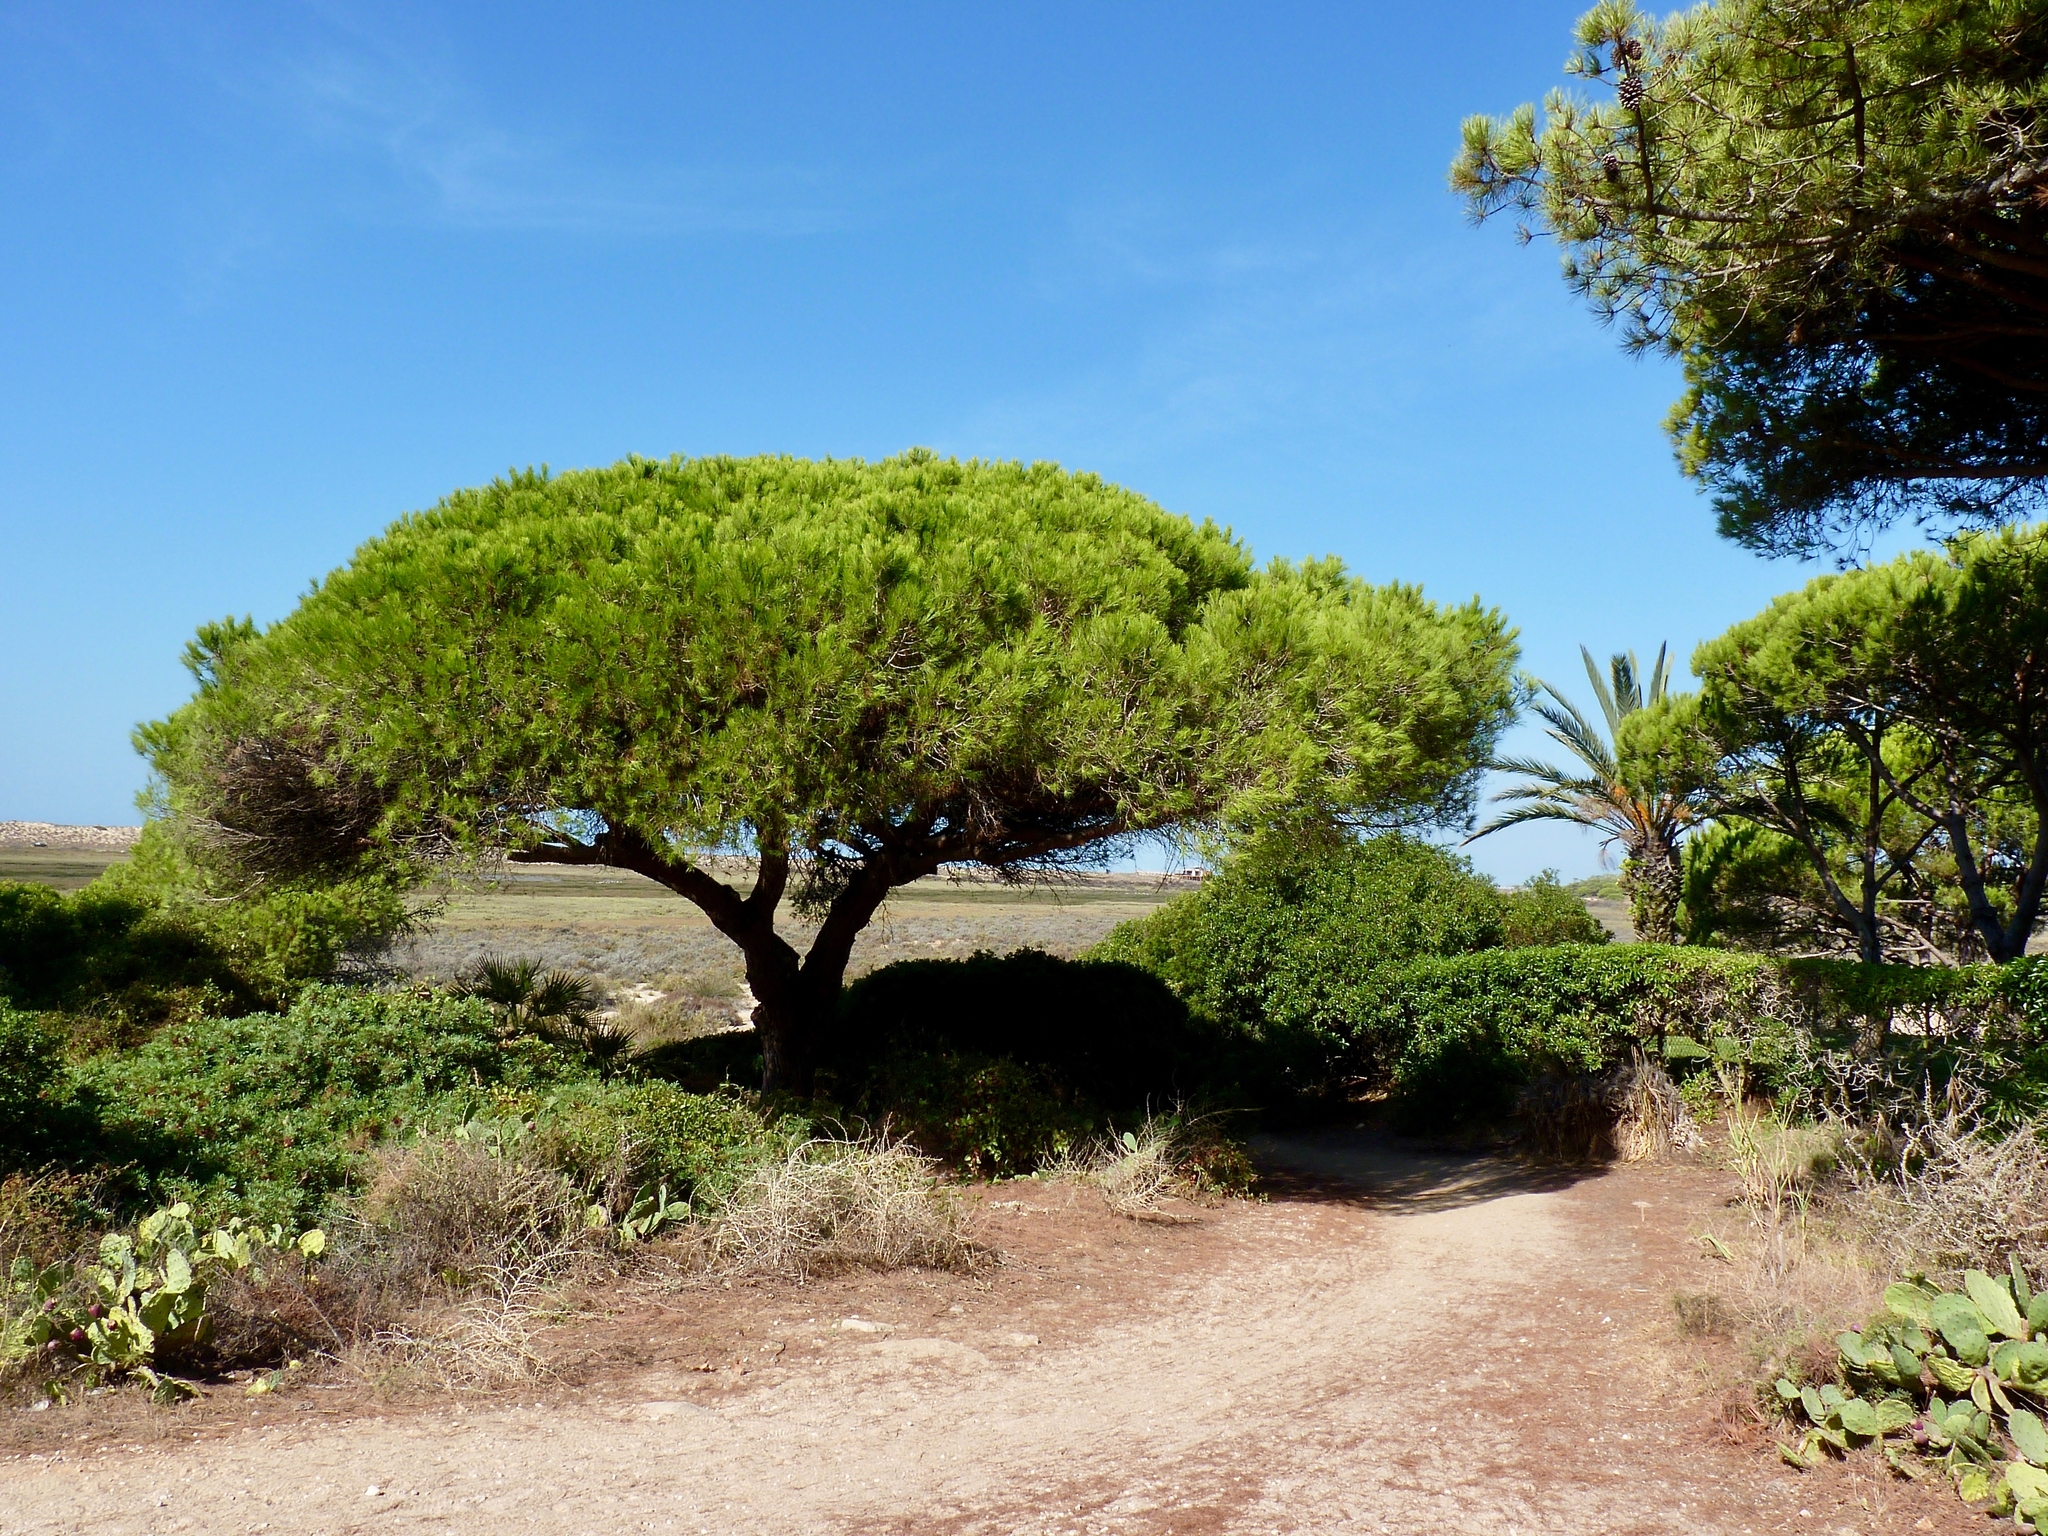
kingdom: Plantae
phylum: Tracheophyta
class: Pinopsida
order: Pinales
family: Pinaceae
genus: Pinus
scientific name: Pinus pinea
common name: Italian stone pine
